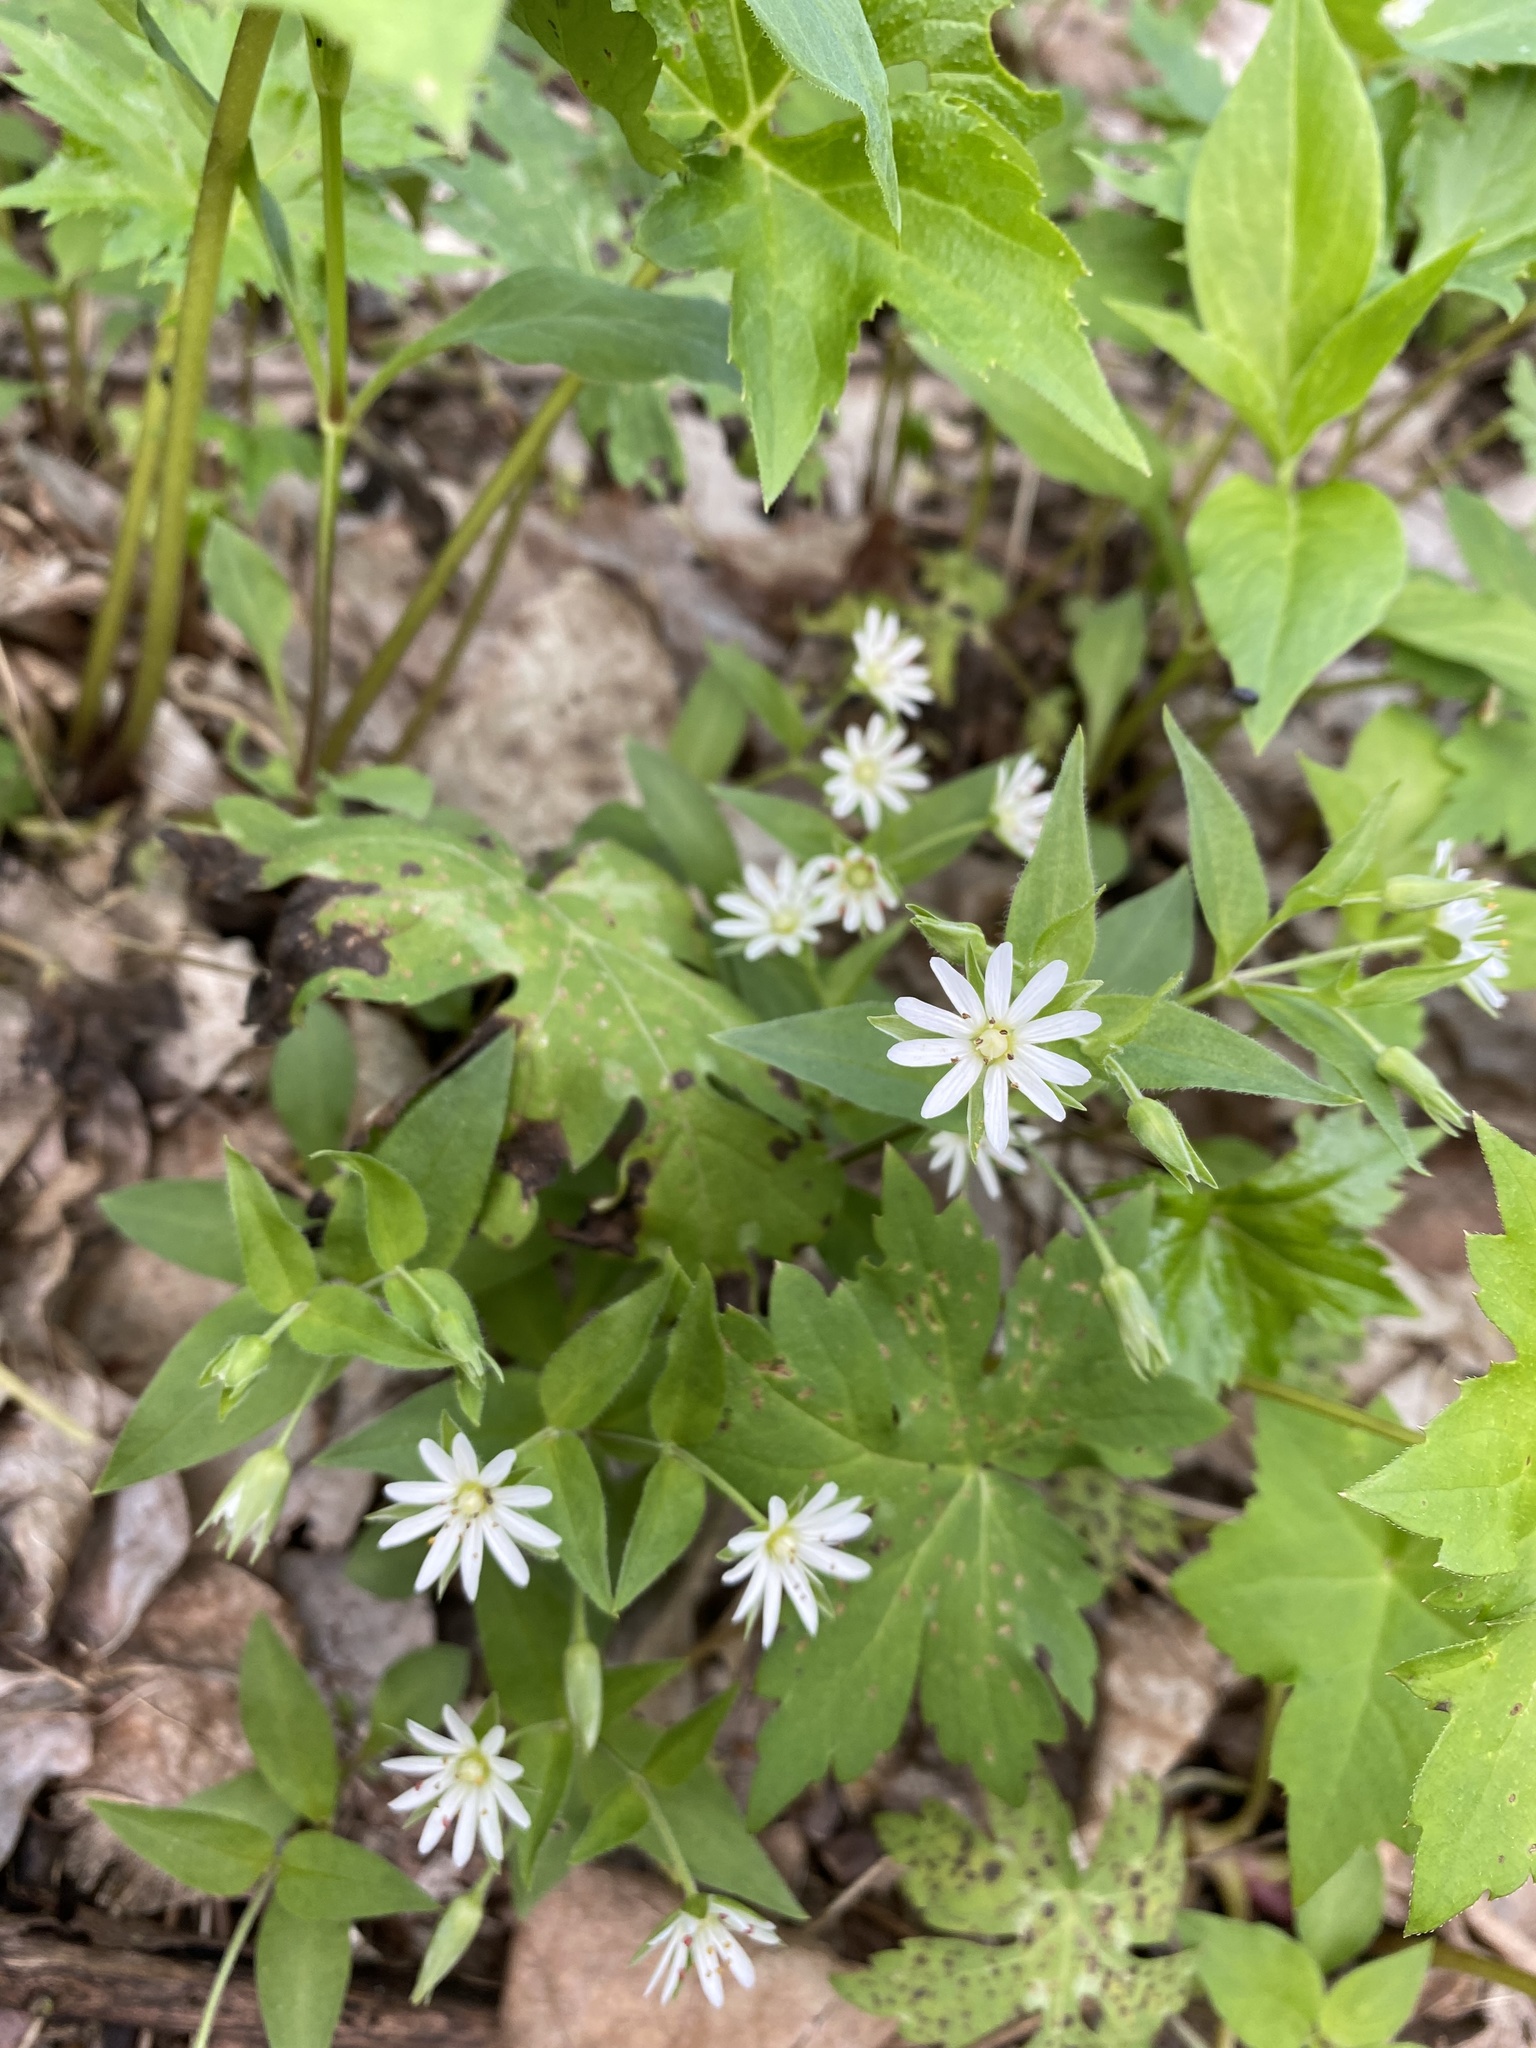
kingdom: Plantae
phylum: Tracheophyta
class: Magnoliopsida
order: Caryophyllales
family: Caryophyllaceae
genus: Stellaria
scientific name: Stellaria corei
